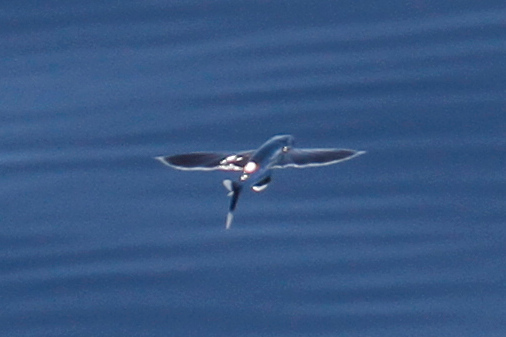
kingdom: Animalia
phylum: Chordata
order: Beloniformes
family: Exocoetidae
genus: Cheilopogon
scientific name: Cheilopogon xenopterus
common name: Whitetip flyingfish
